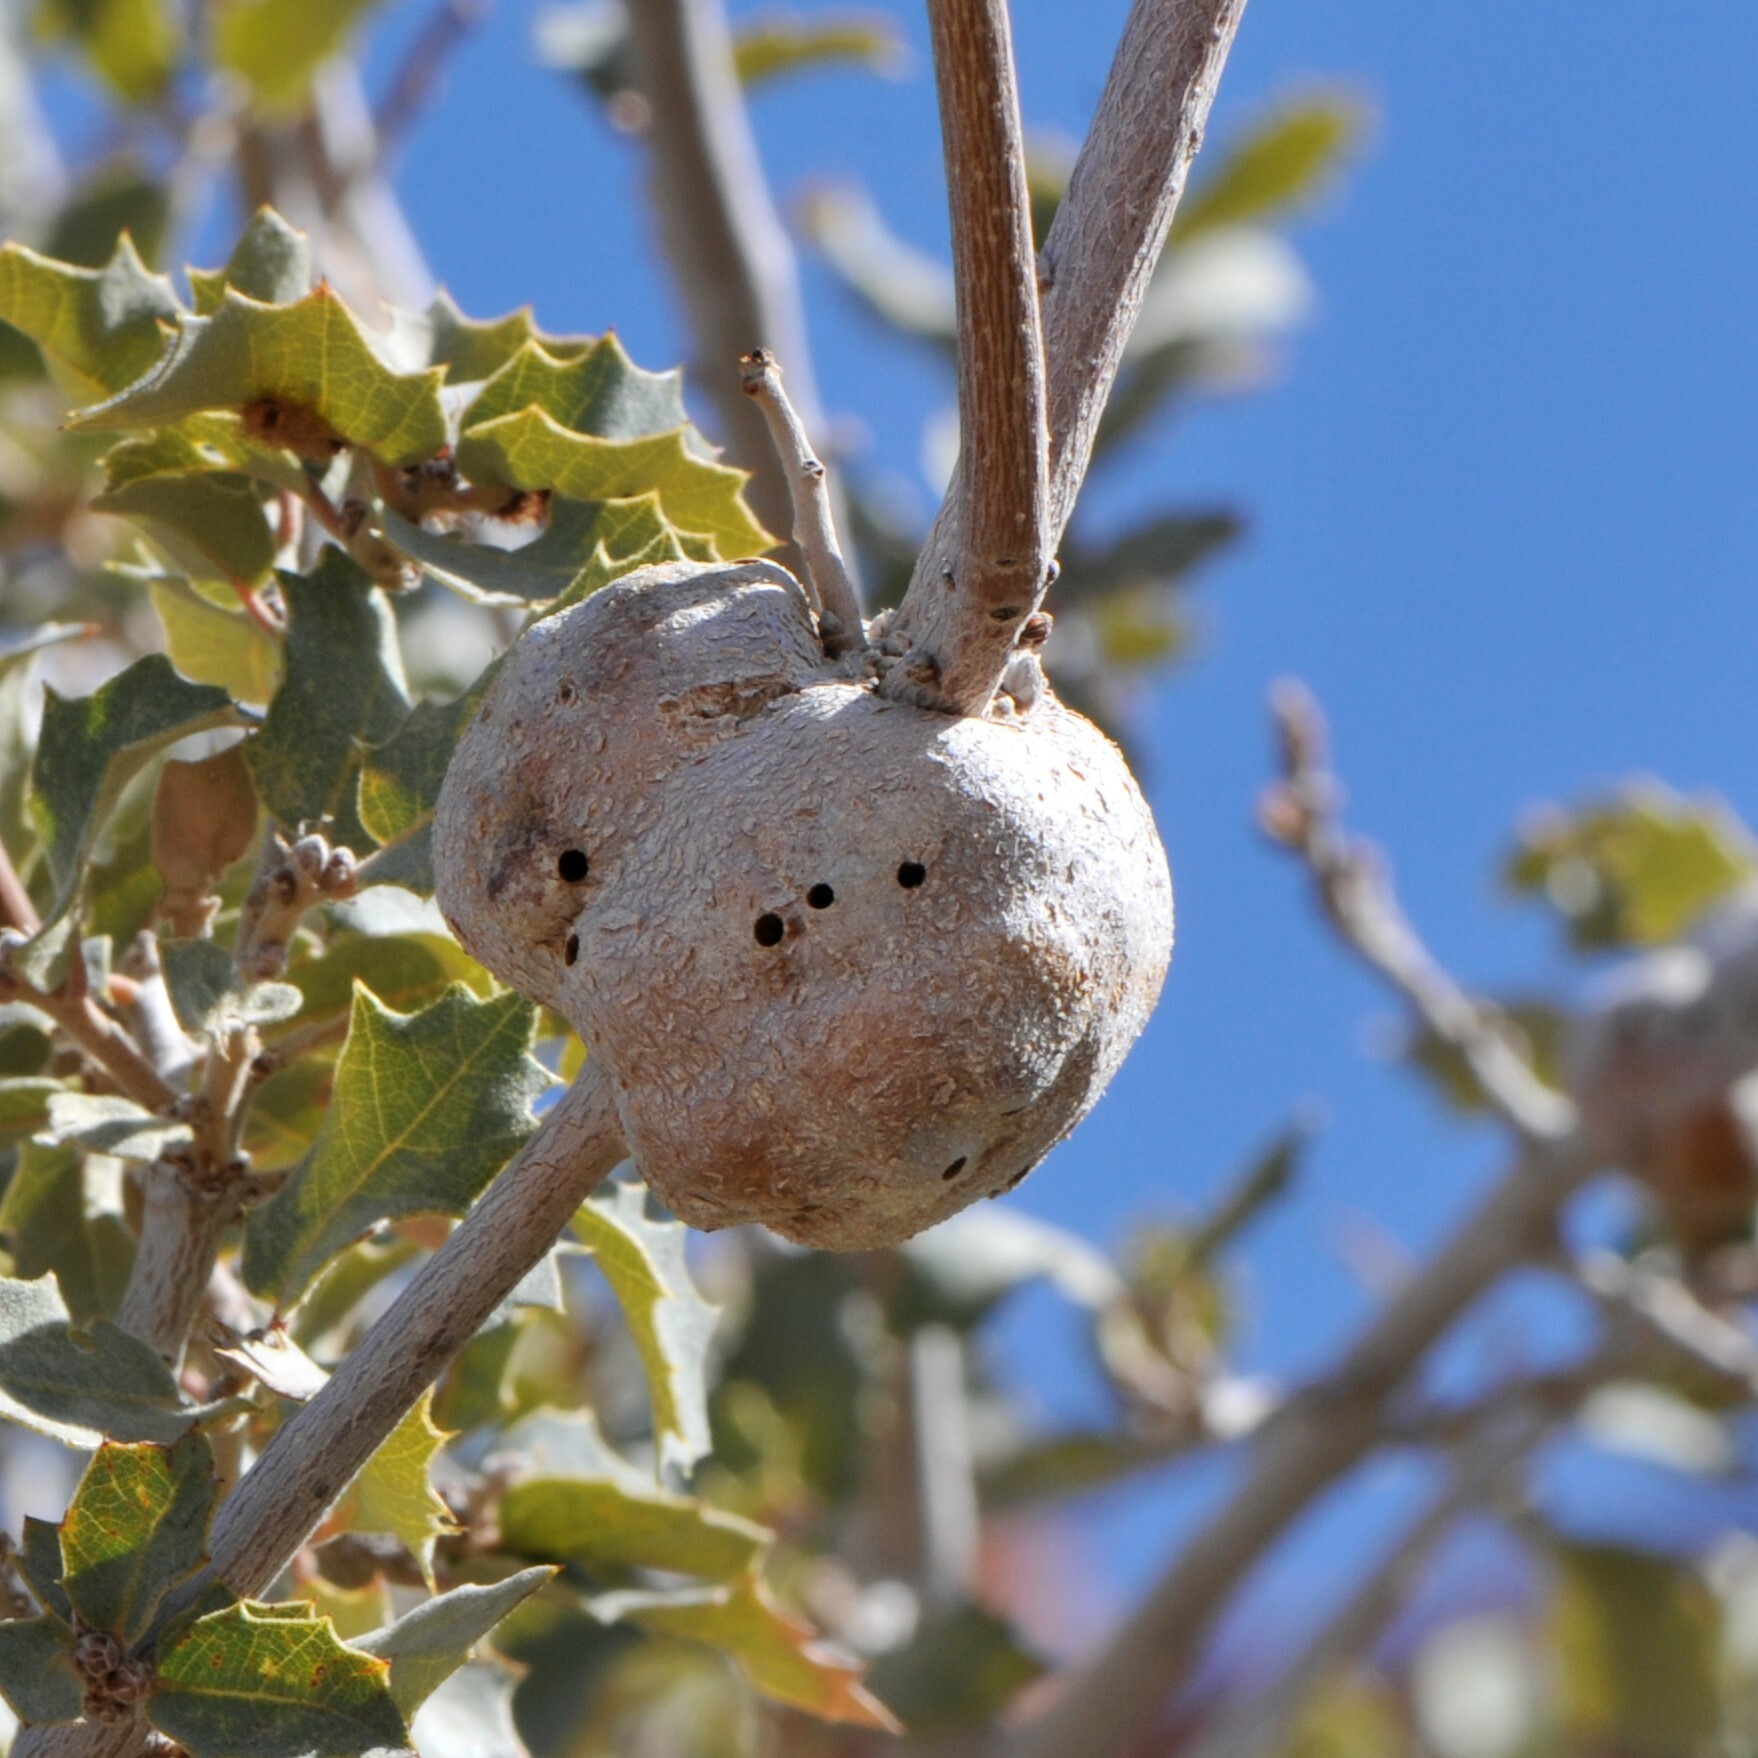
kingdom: Animalia
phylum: Arthropoda
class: Insecta
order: Hymenoptera
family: Cynipidae
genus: Andricus
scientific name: Andricus
